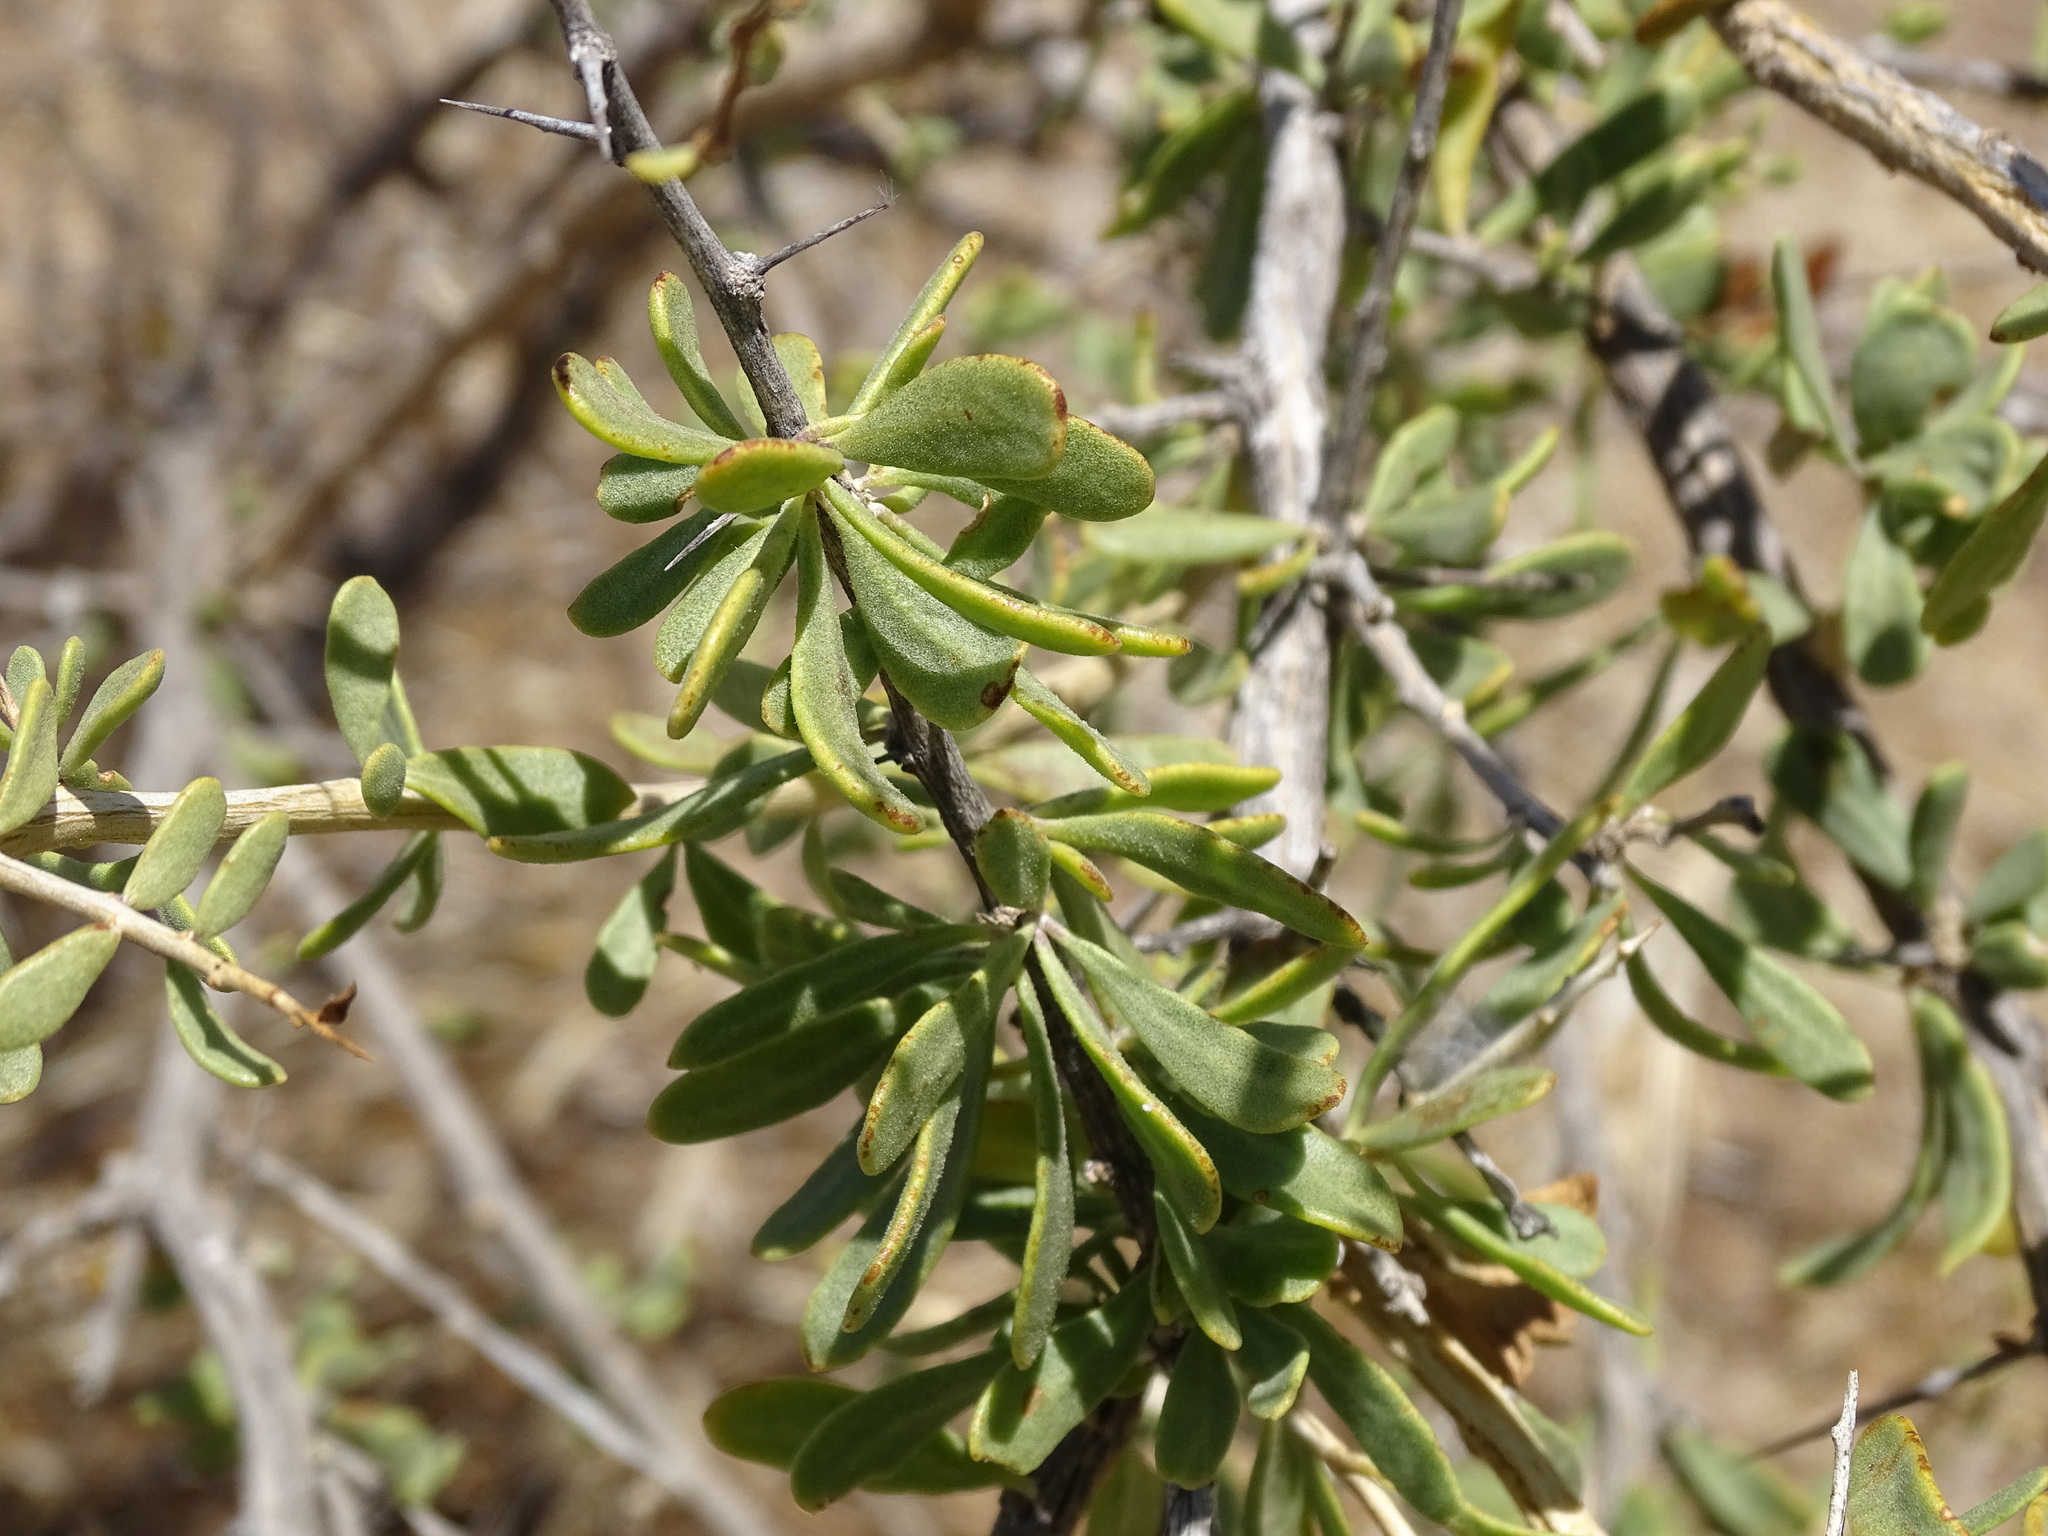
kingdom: Plantae
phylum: Tracheophyta
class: Magnoliopsida
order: Solanales
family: Solanaceae
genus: Lycium
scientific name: Lycium brevipes
